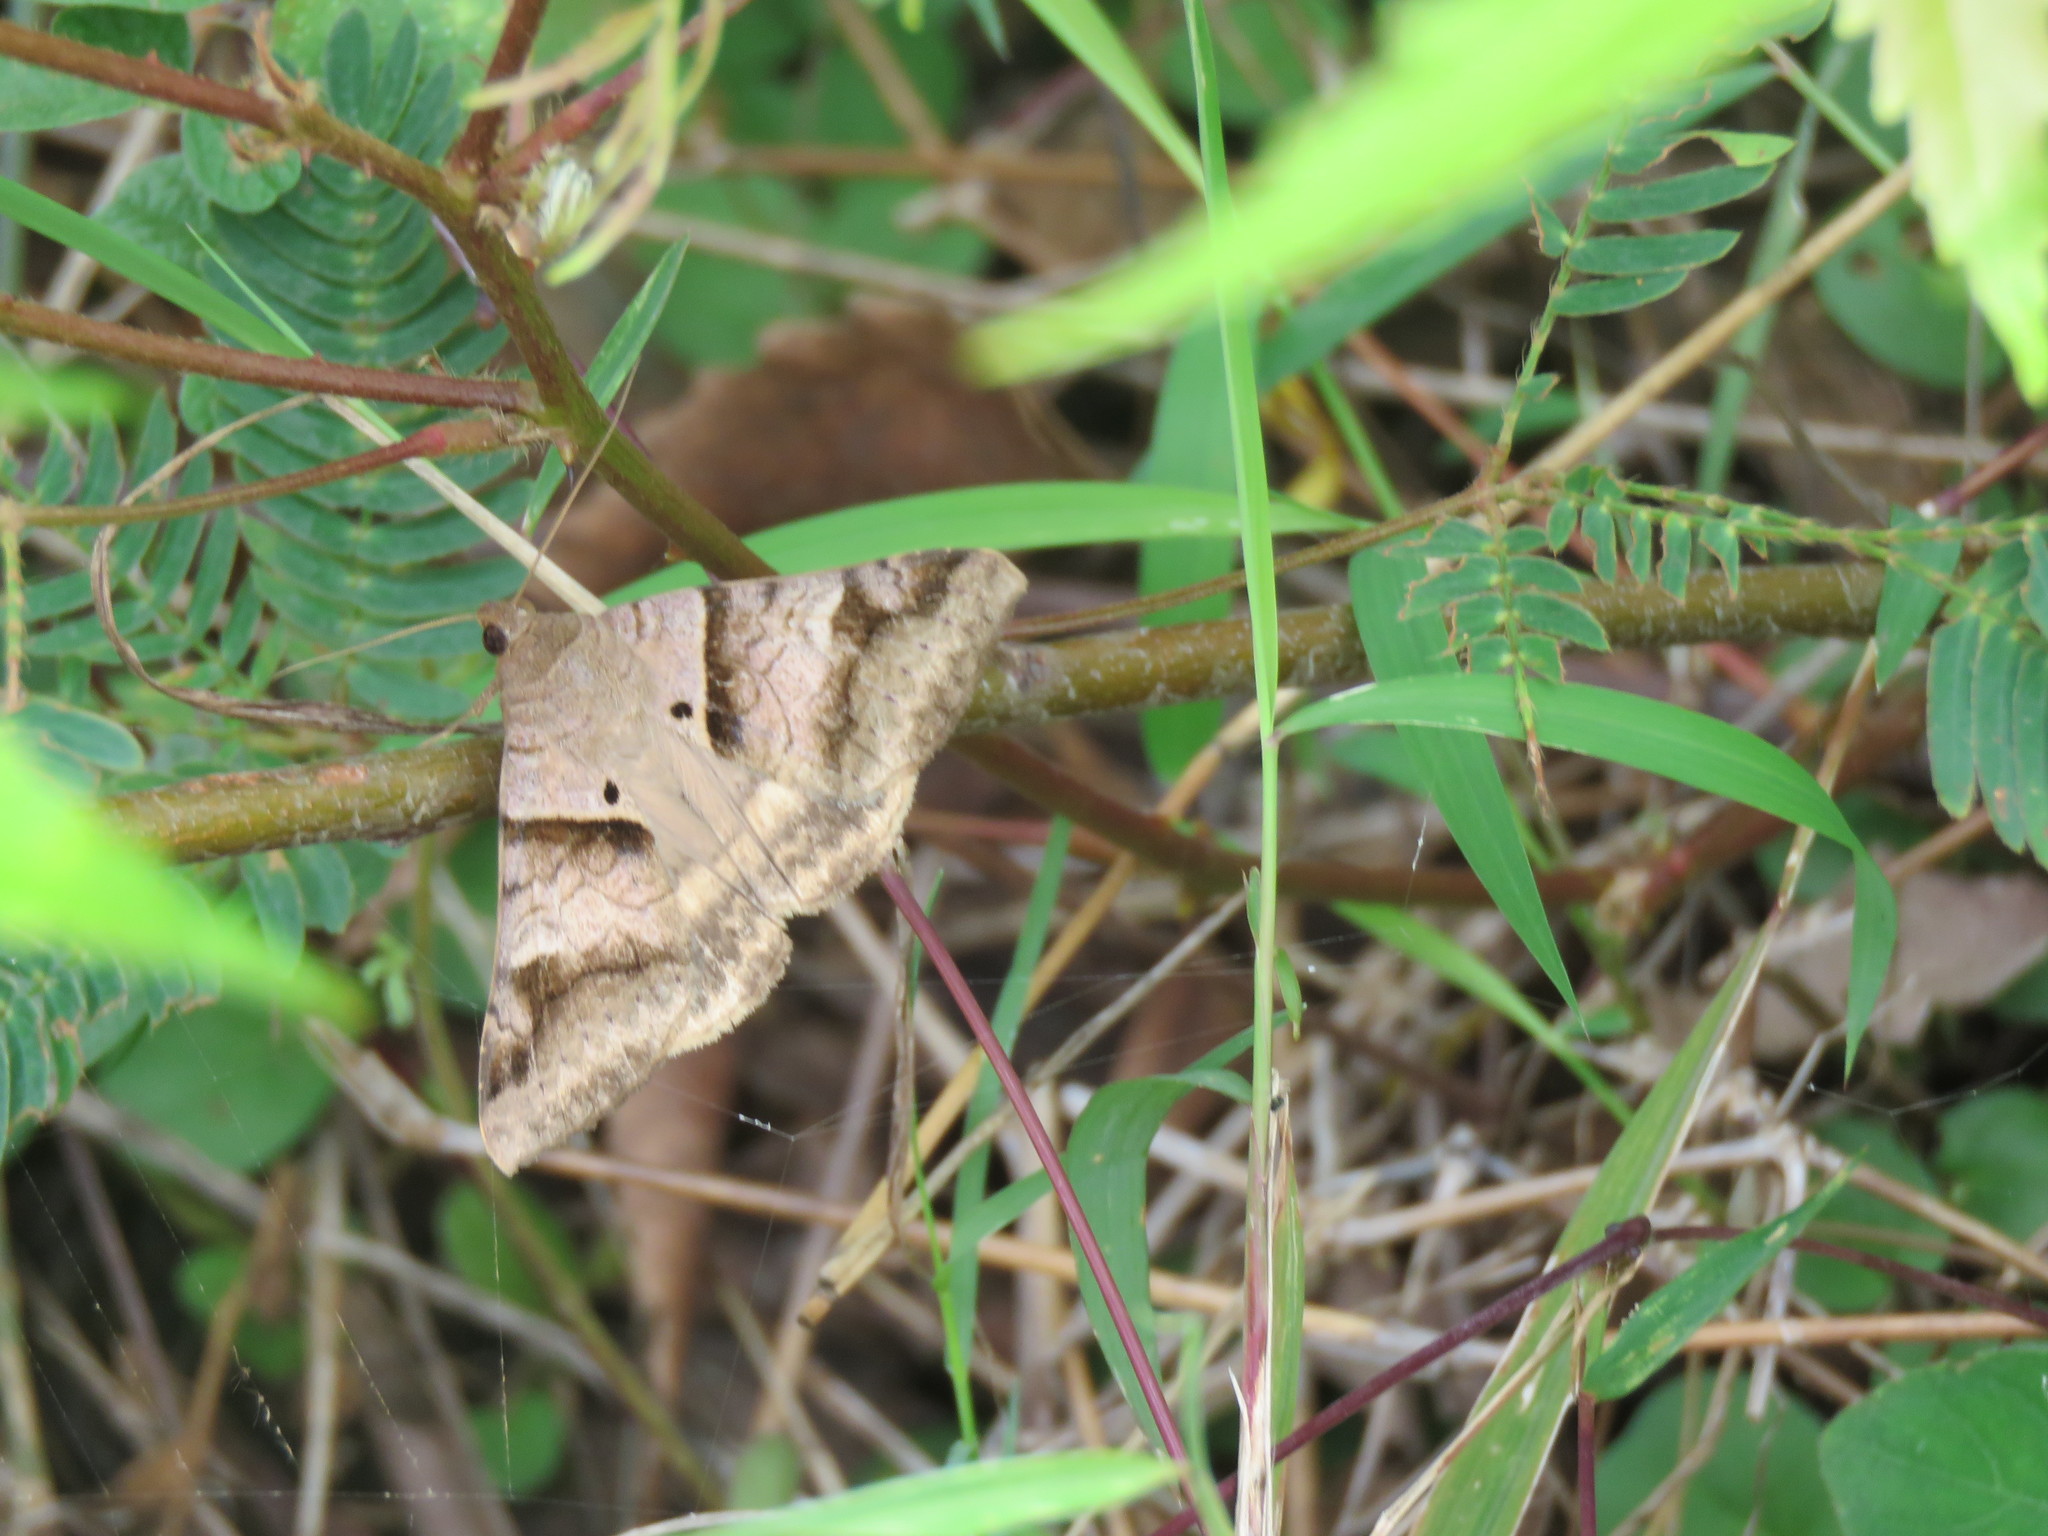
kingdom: Animalia
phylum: Arthropoda
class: Insecta
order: Lepidoptera
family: Erebidae
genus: Mocis
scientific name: Mocis undata
